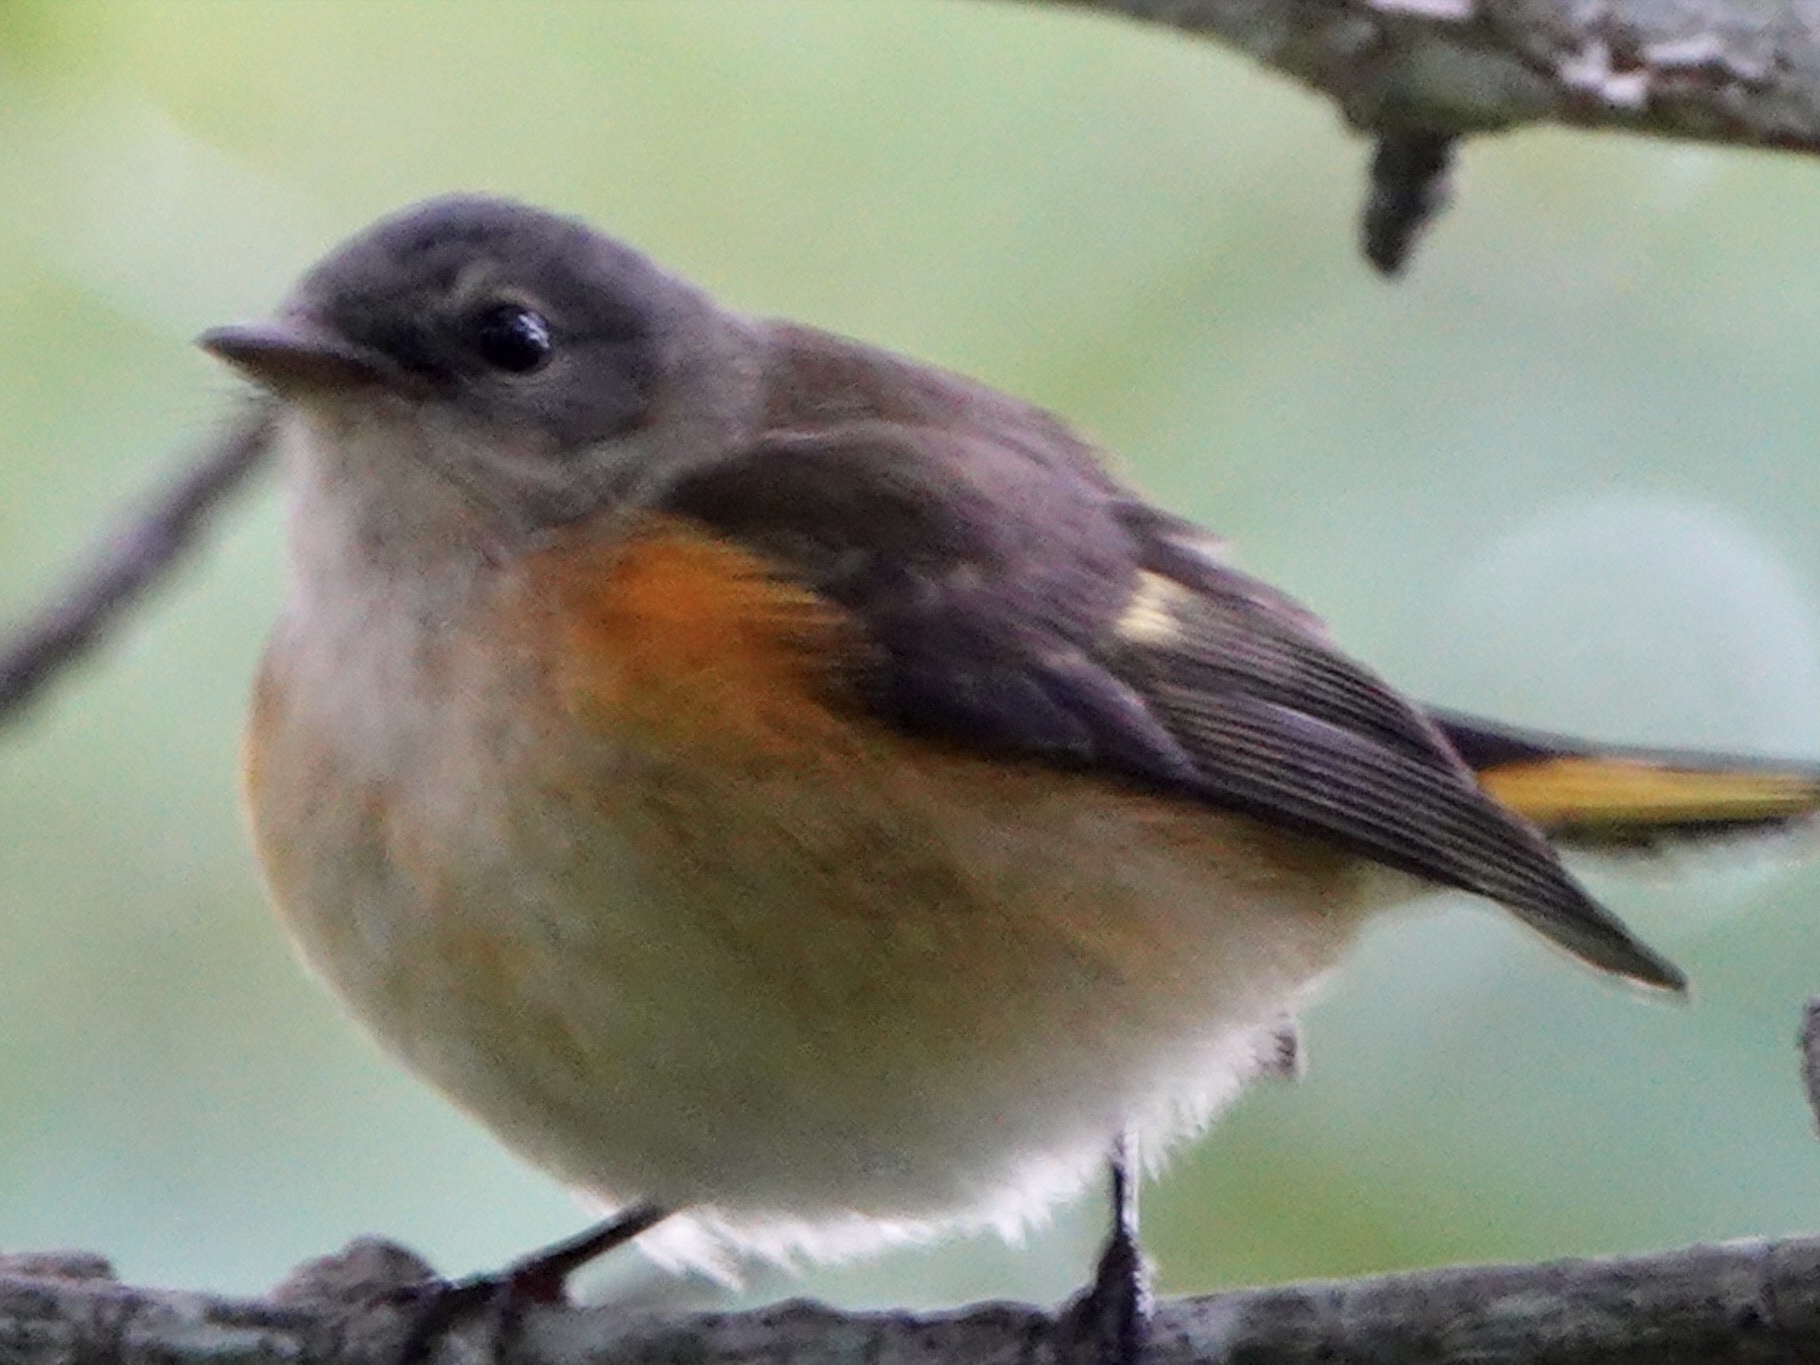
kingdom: Animalia
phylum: Chordata
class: Aves
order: Passeriformes
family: Parulidae
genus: Setophaga
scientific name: Setophaga ruticilla
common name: American redstart
